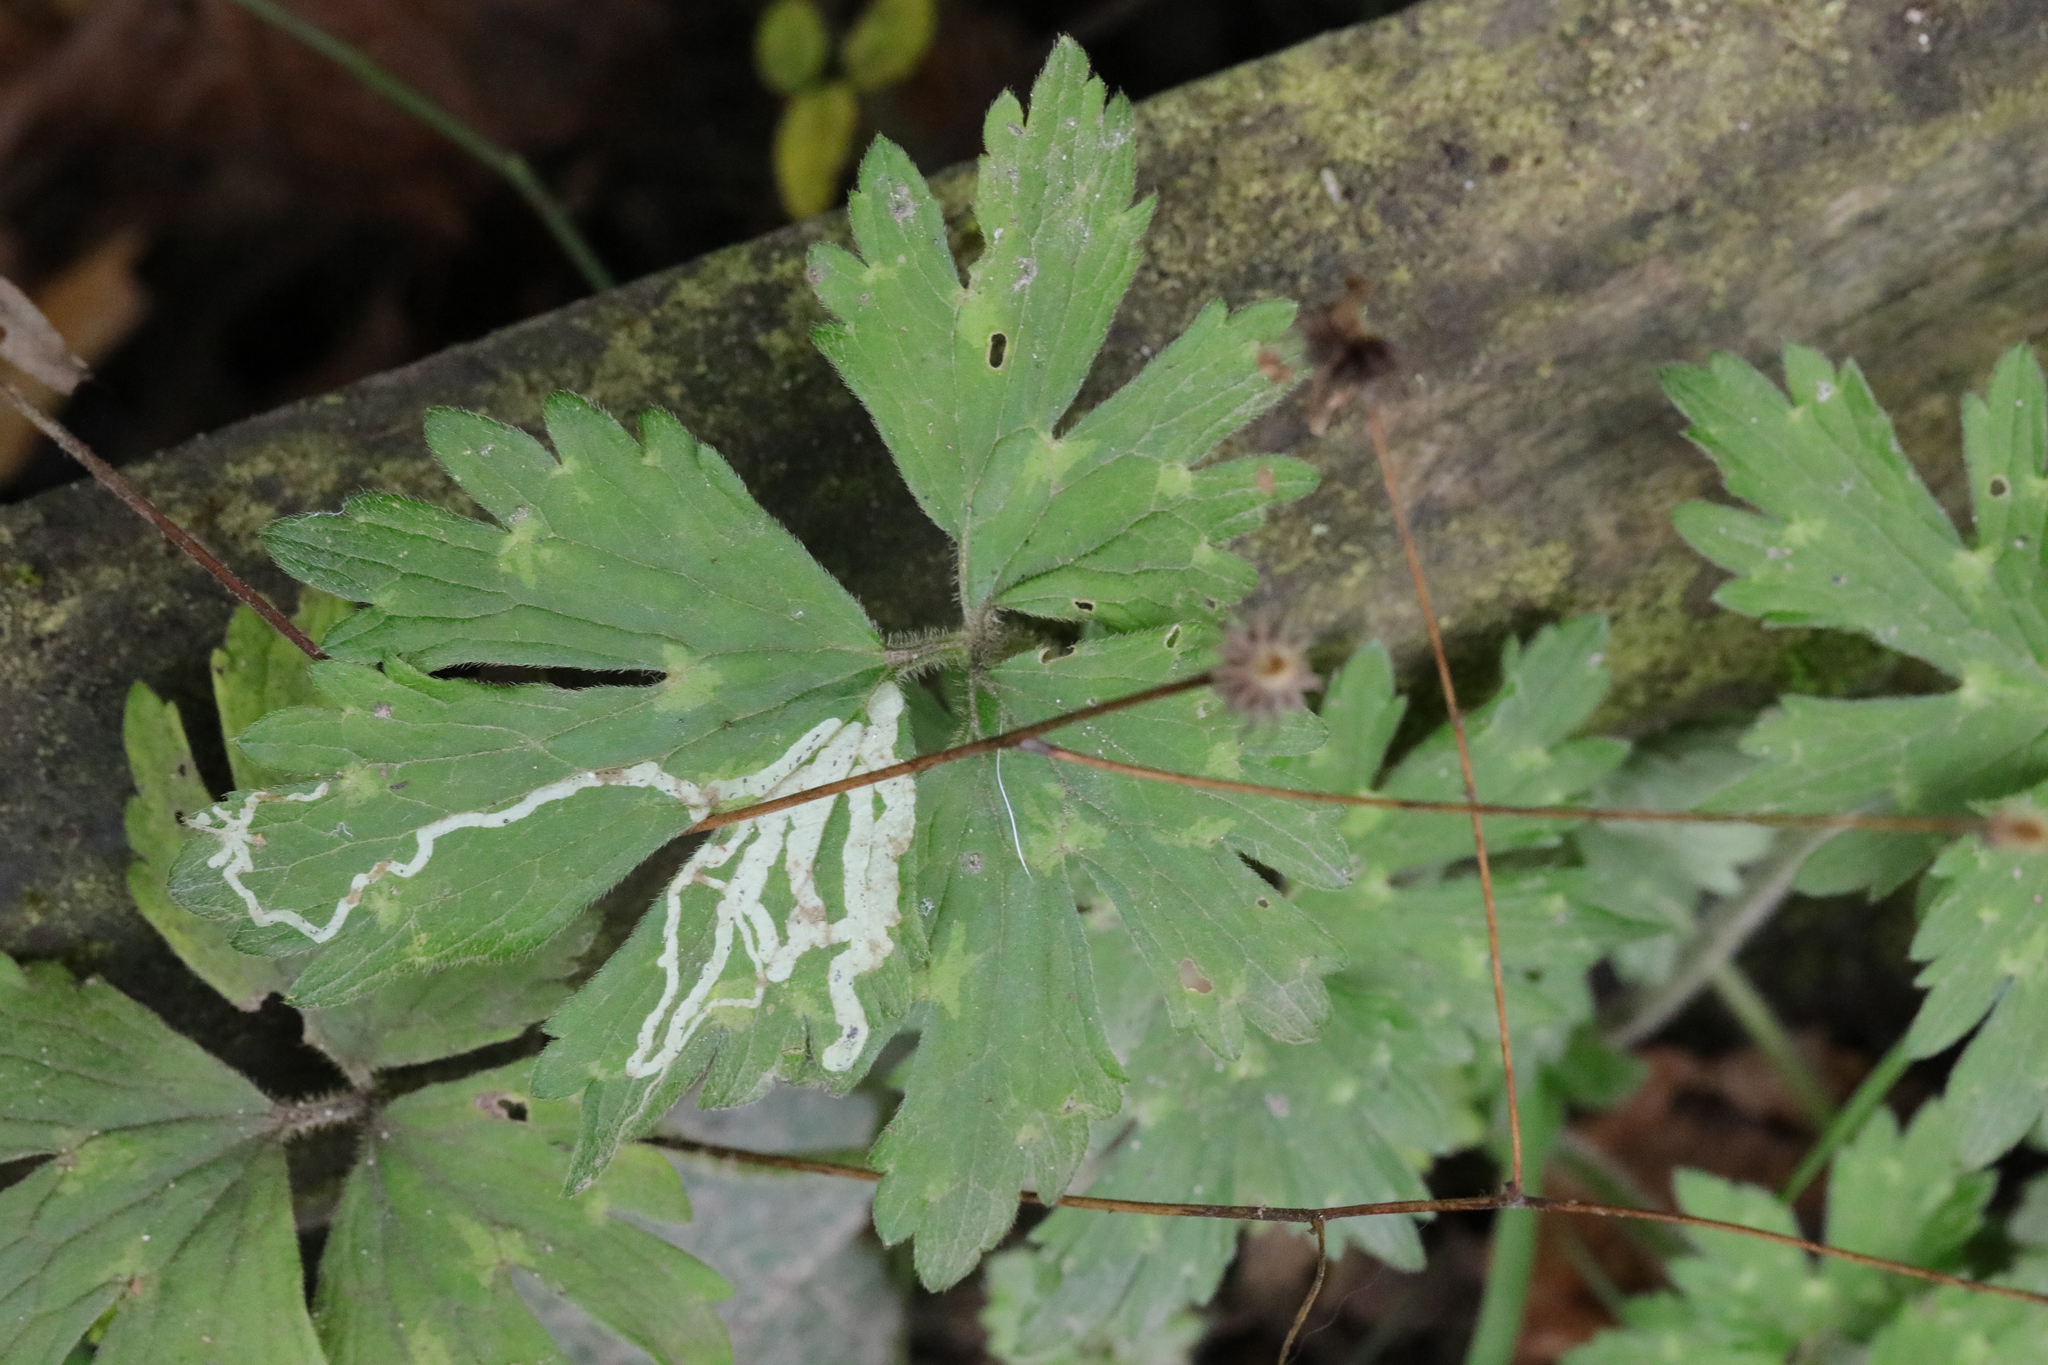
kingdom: Animalia
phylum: Arthropoda
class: Insecta
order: Diptera
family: Agromyzidae
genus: Phytomyza
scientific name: Phytomyza ranunculi
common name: Leaf-miner fly
